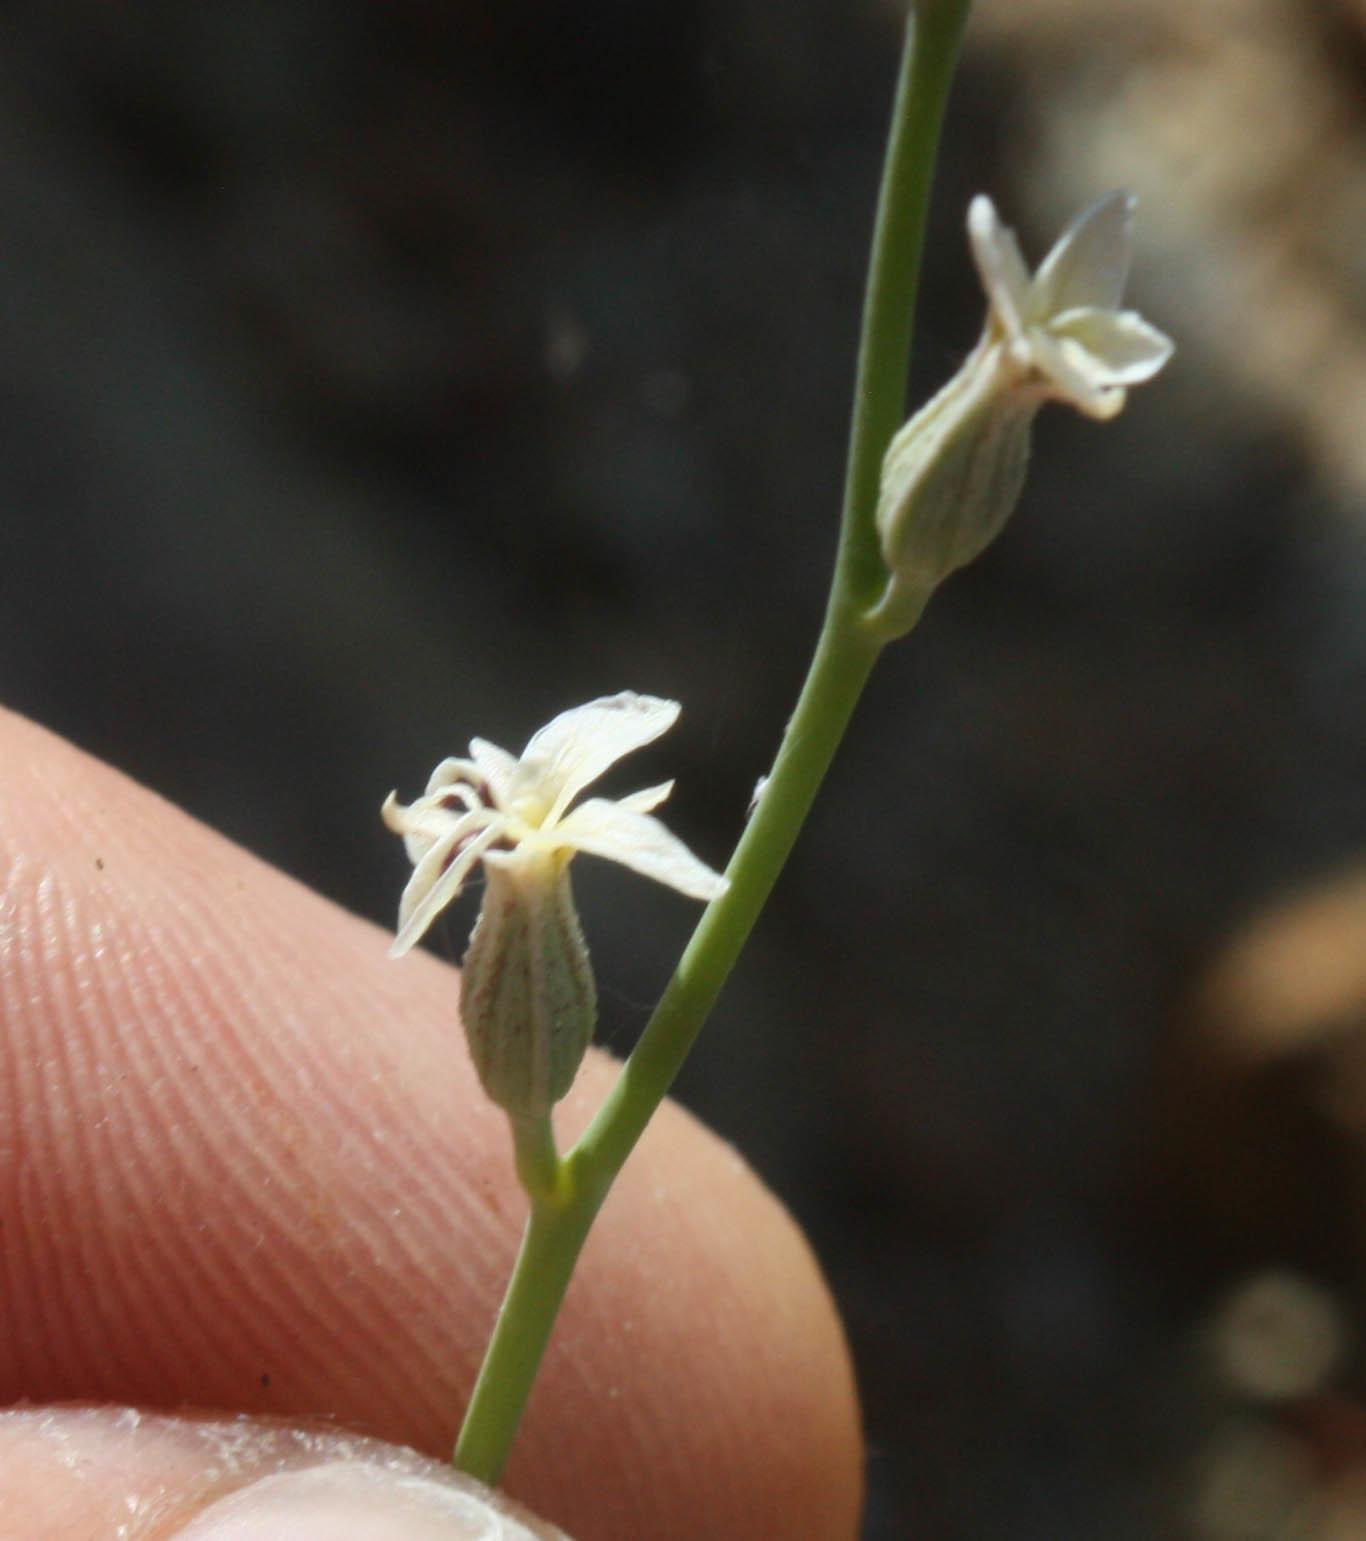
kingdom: Plantae
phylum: Tracheophyta
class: Magnoliopsida
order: Brassicales
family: Brassicaceae
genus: Streptanthus
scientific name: Streptanthus barbiger
